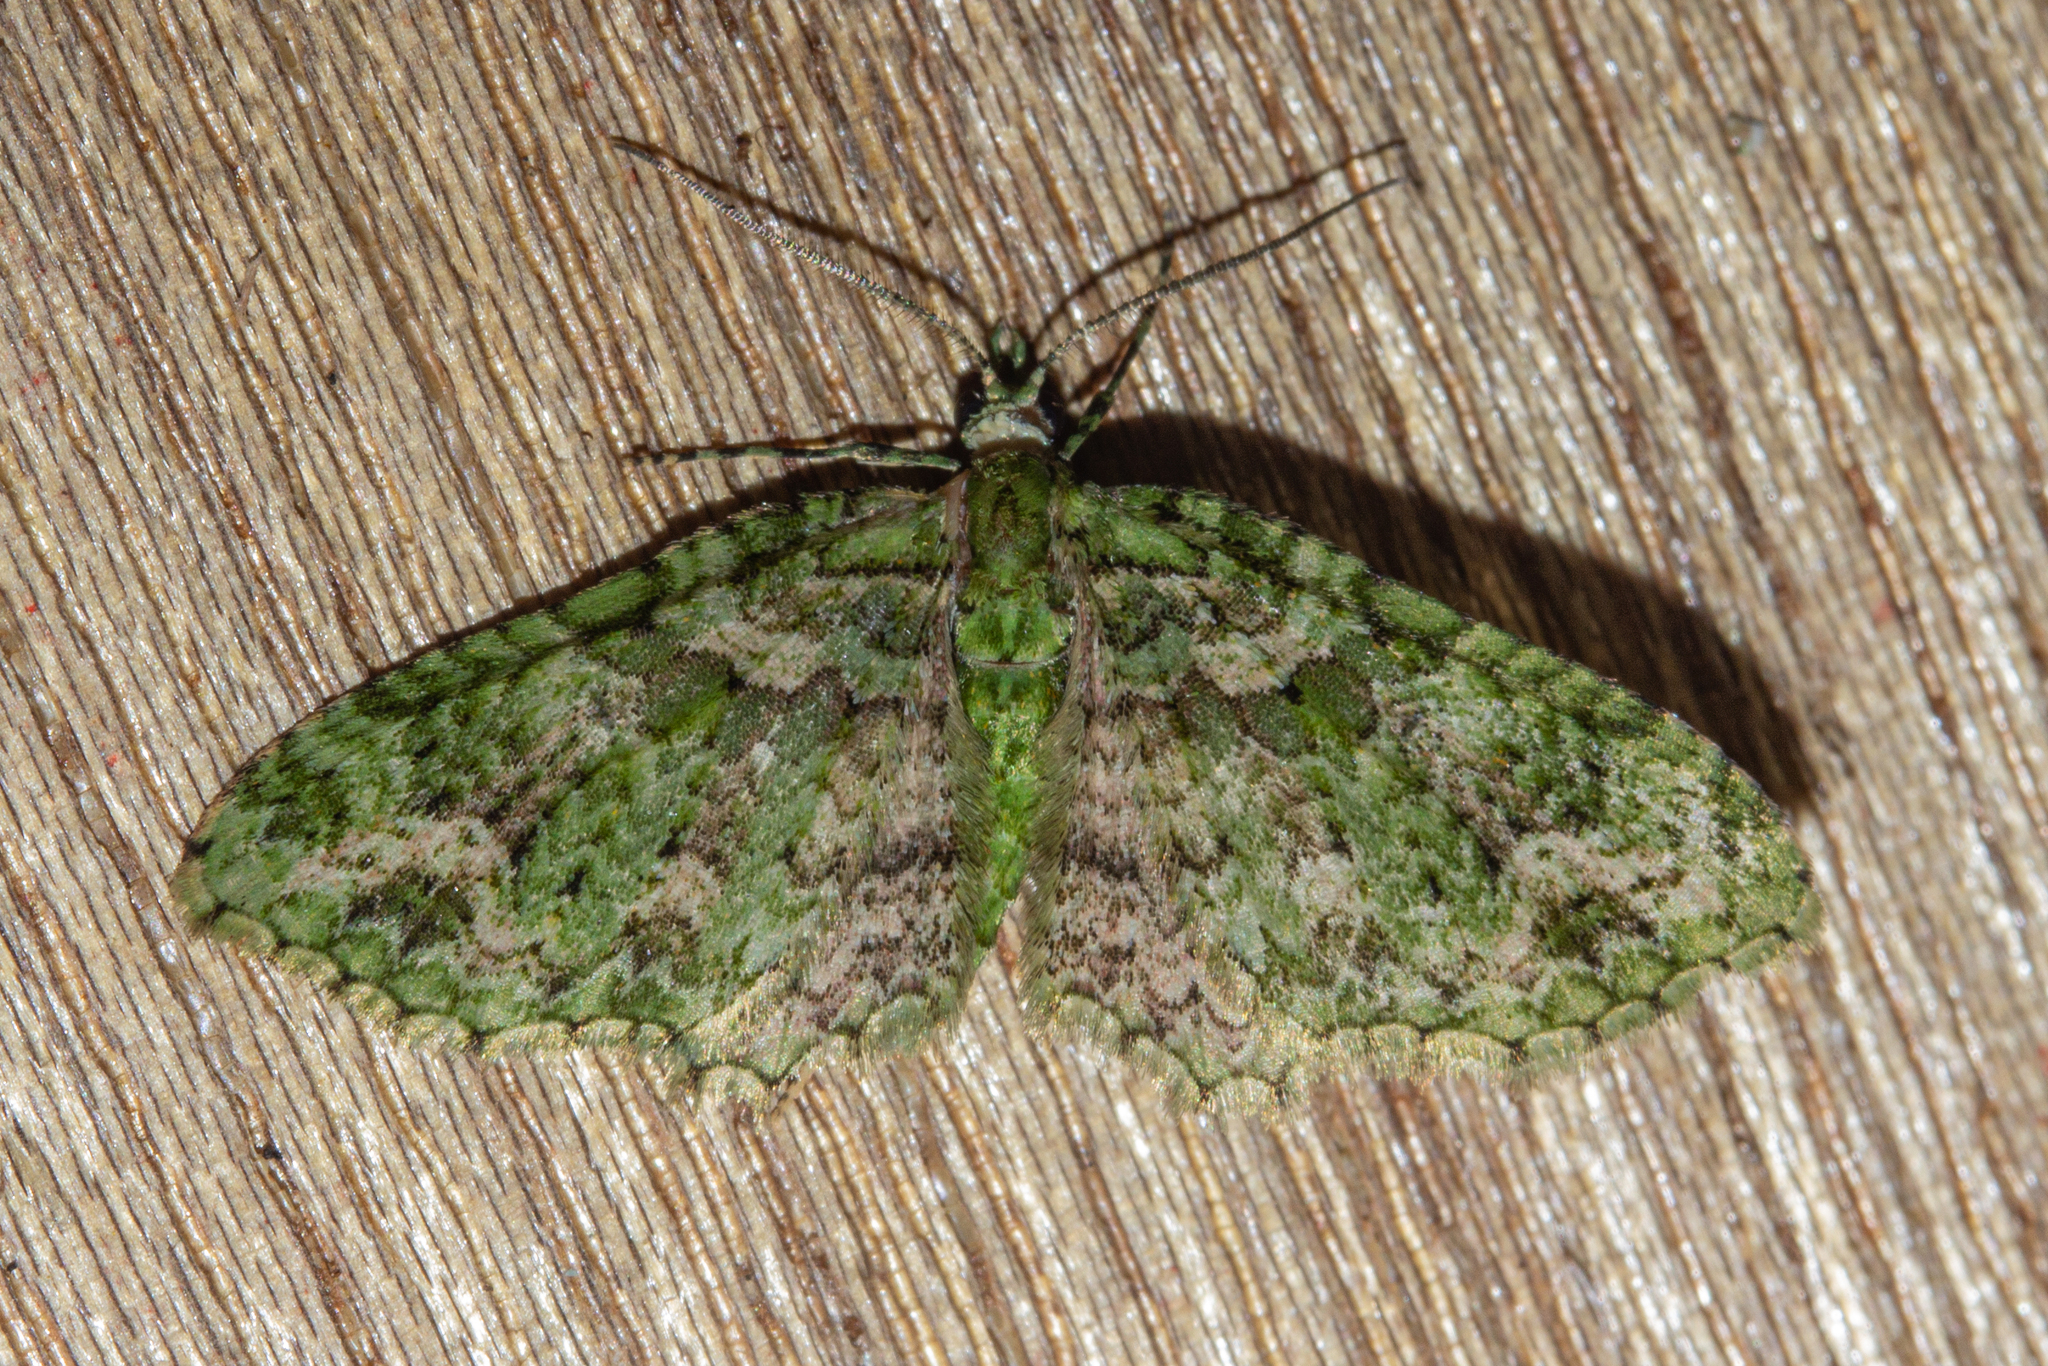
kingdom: Animalia
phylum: Arthropoda
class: Insecta
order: Lepidoptera
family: Geometridae
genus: Pasiphila
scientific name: Pasiphila muscosata
